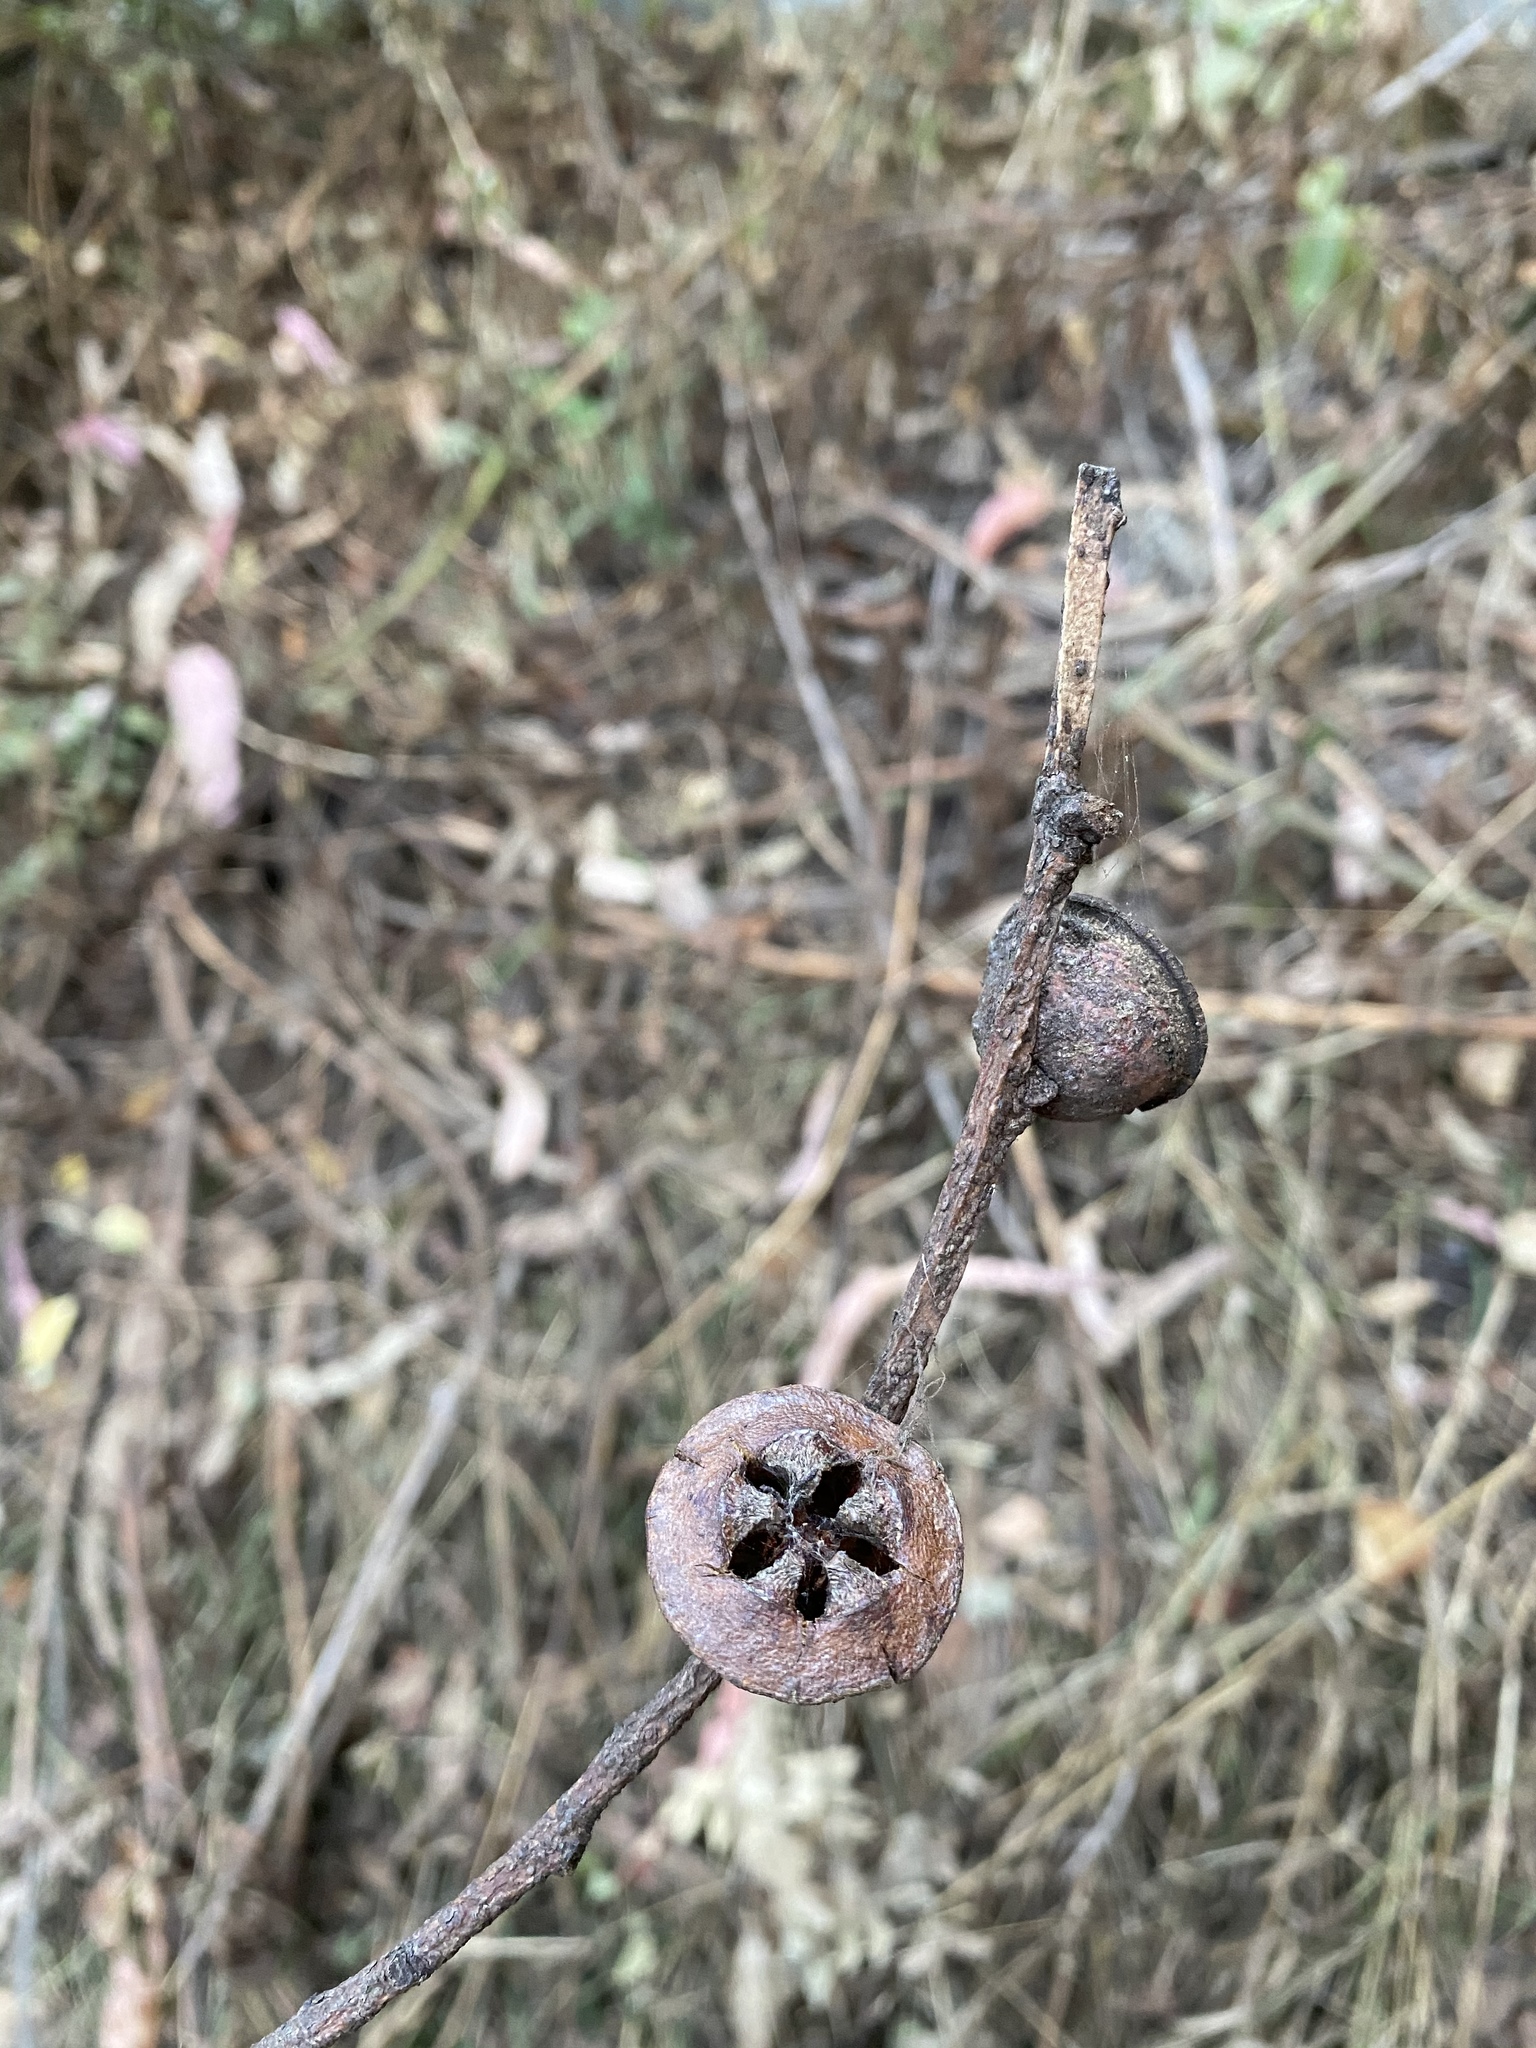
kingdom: Plantae
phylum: Tracheophyta
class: Magnoliopsida
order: Myrtales
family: Myrtaceae
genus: Eucalyptus
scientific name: Eucalyptus globulus
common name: Southern blue-gum
